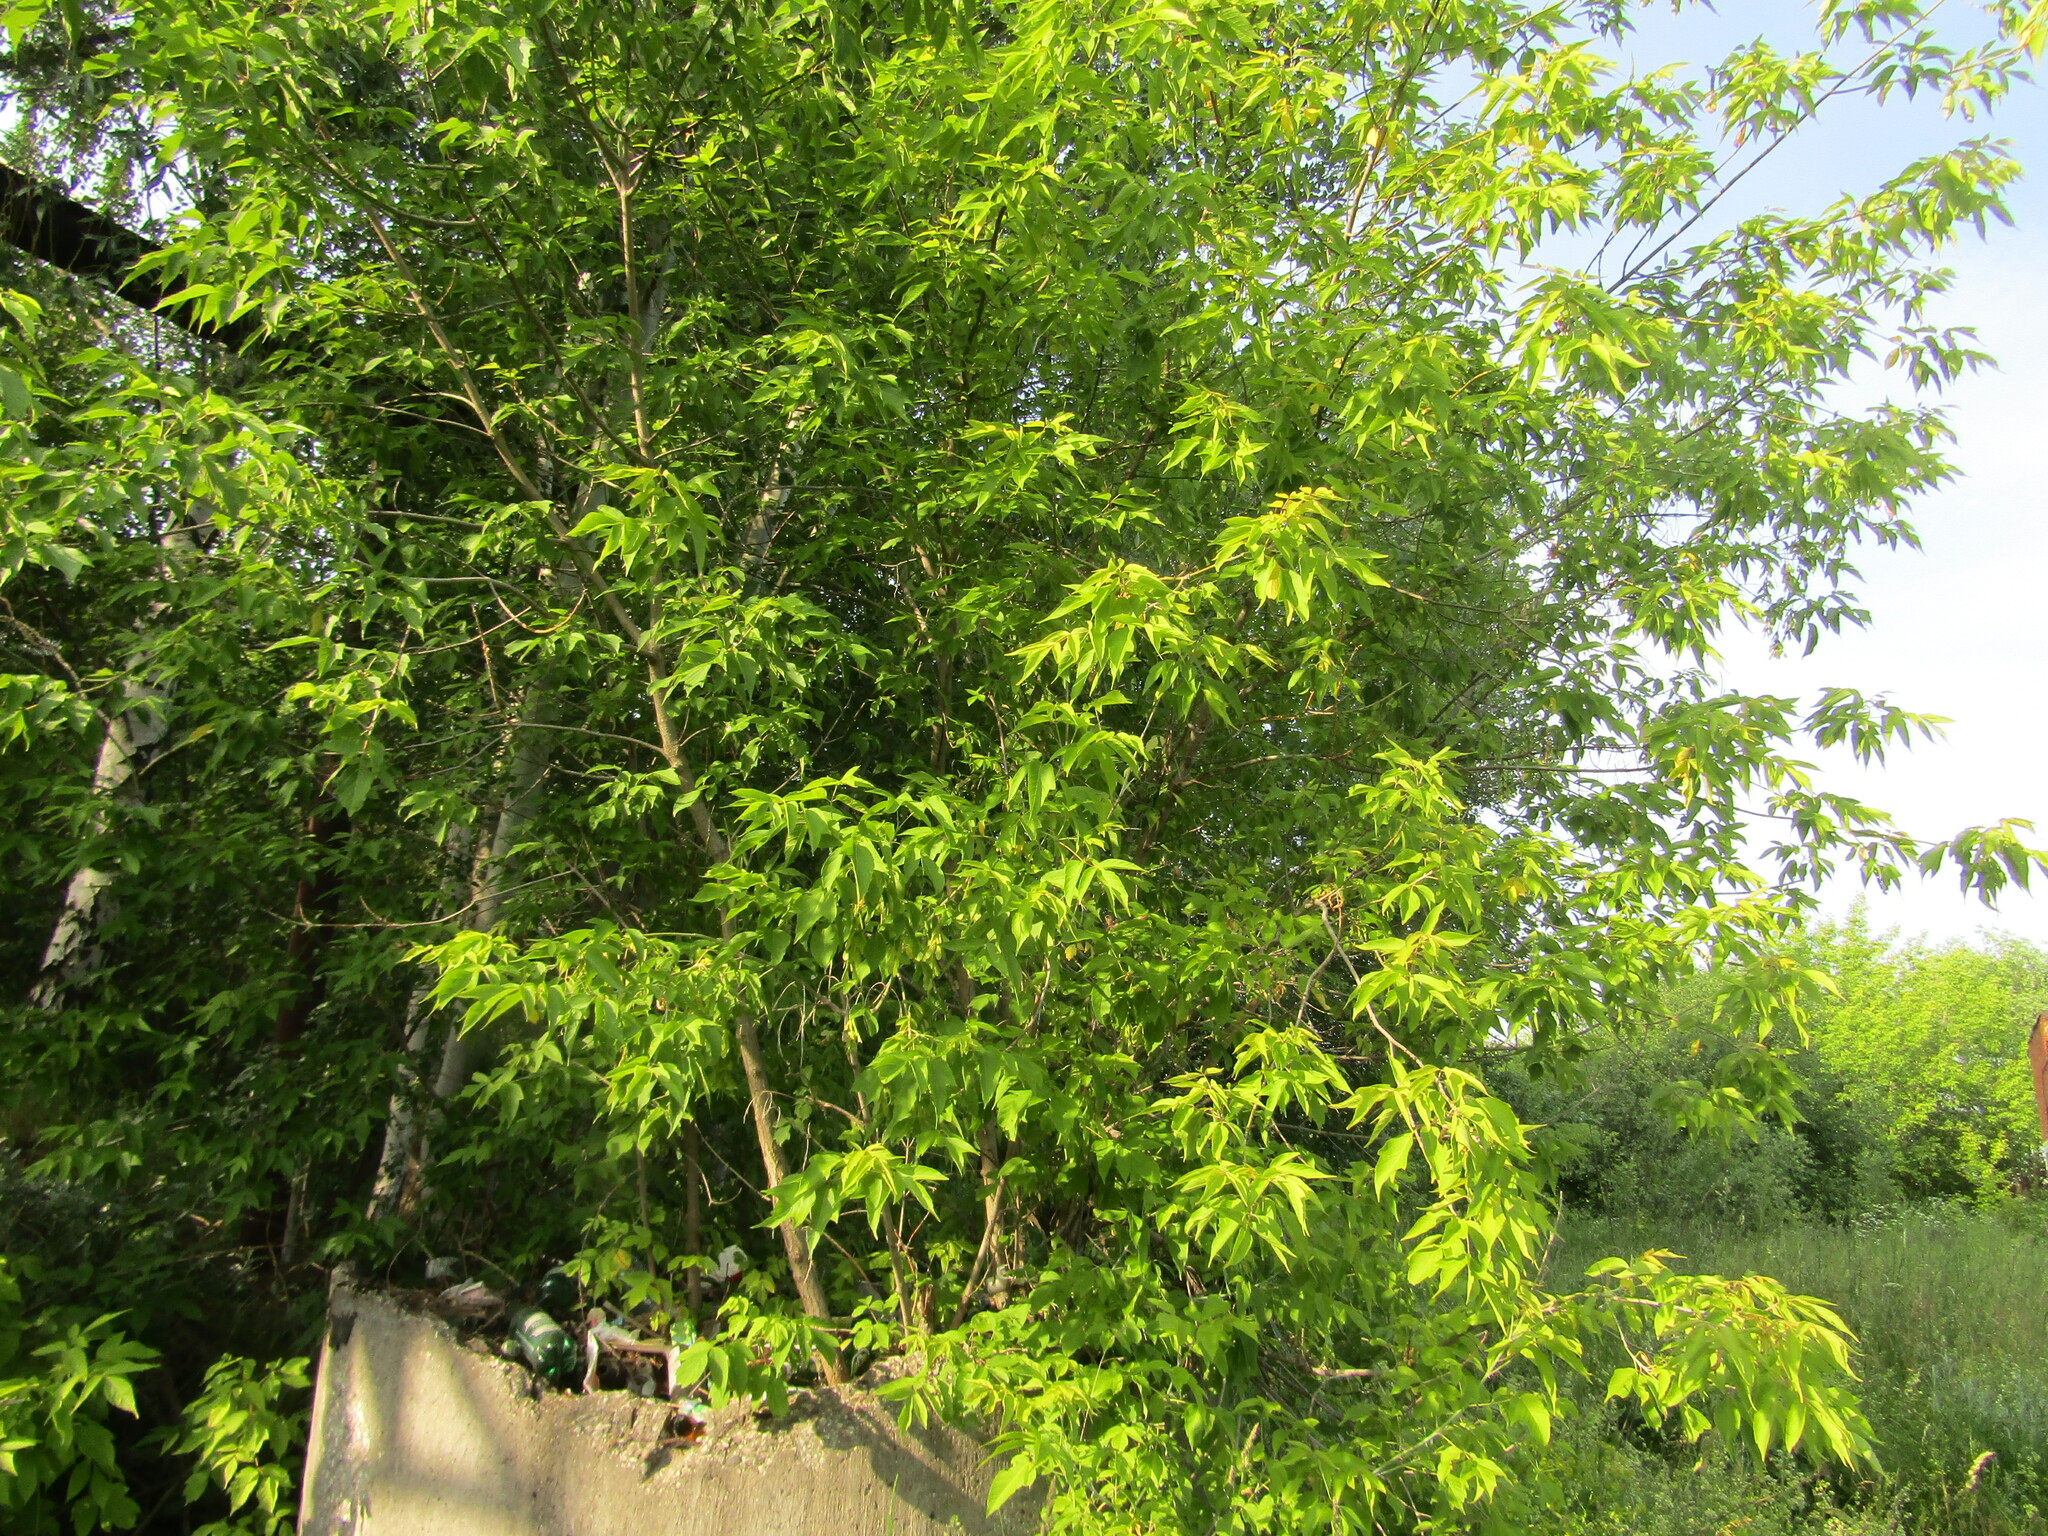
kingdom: Plantae
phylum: Tracheophyta
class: Magnoliopsida
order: Sapindales
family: Sapindaceae
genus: Acer
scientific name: Acer negundo
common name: Ashleaf maple
